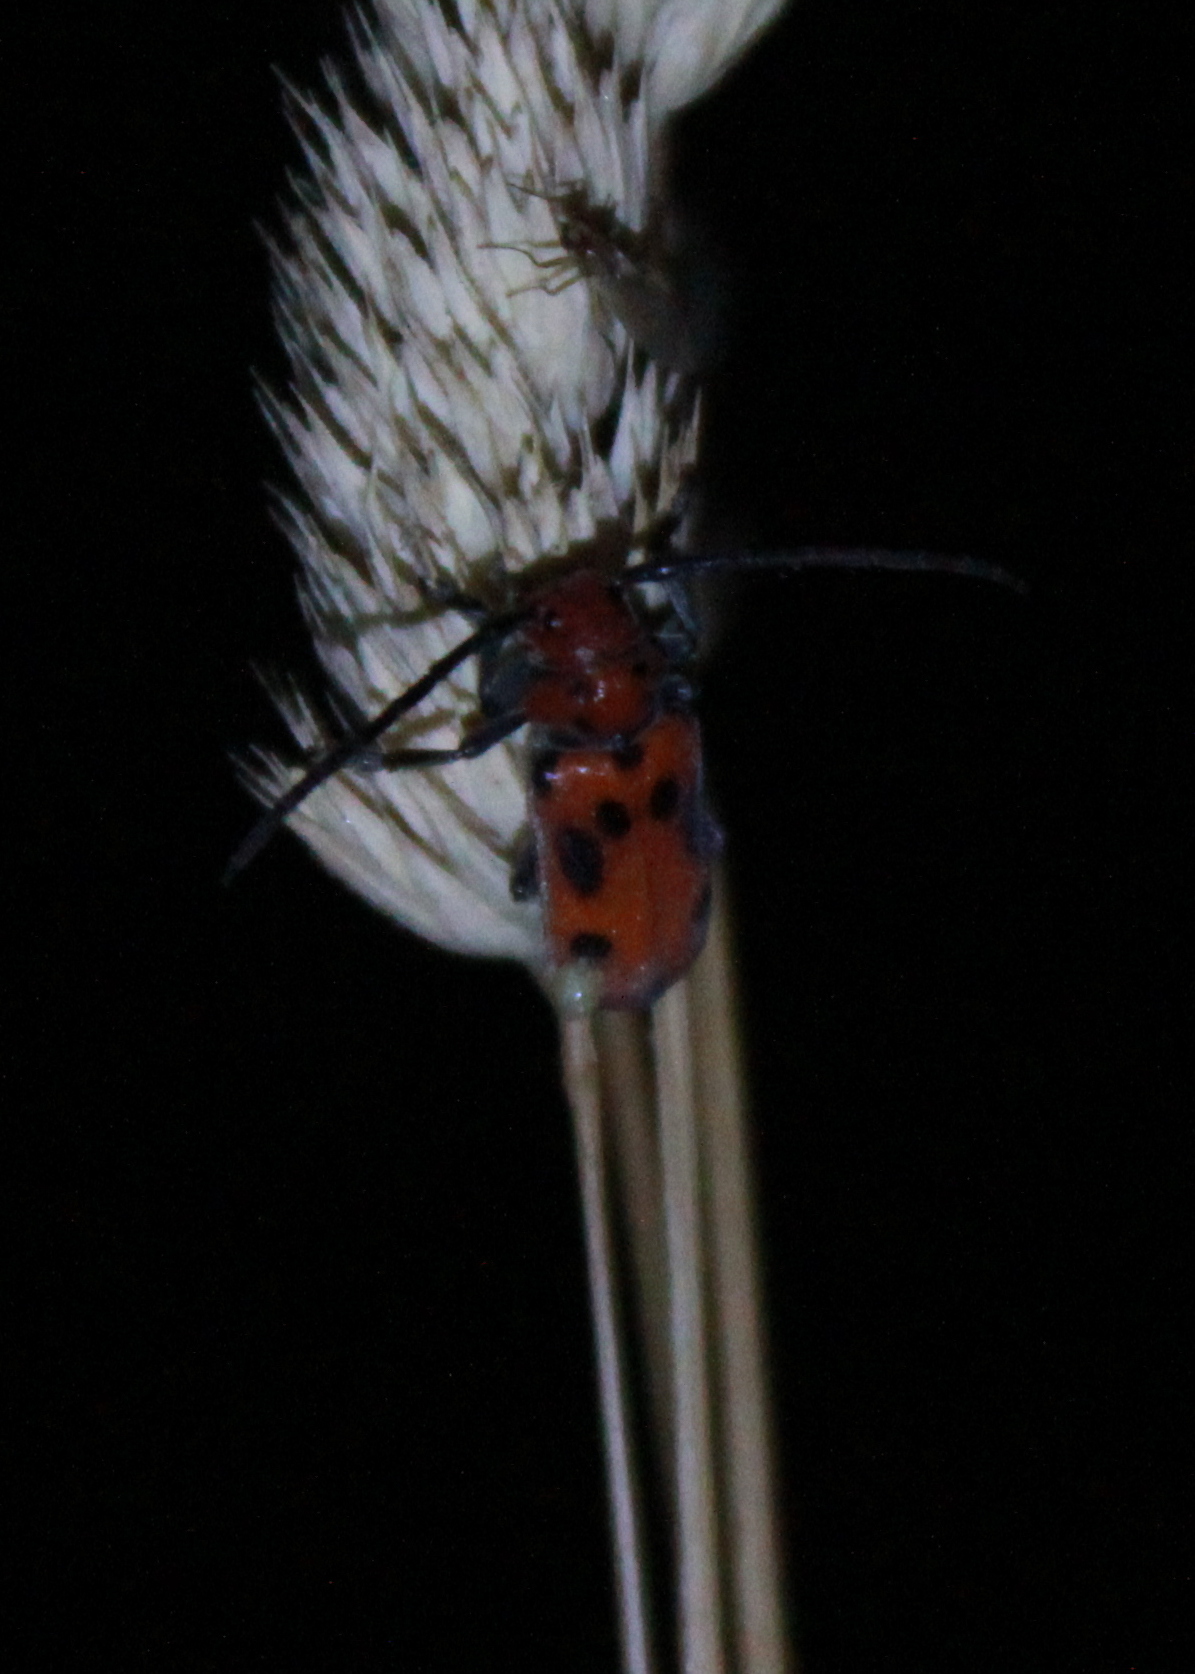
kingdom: Animalia
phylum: Arthropoda
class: Insecta
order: Coleoptera
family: Cerambycidae
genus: Tetraopes
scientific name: Tetraopes tetrophthalmus
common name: Red milkweed beetle
